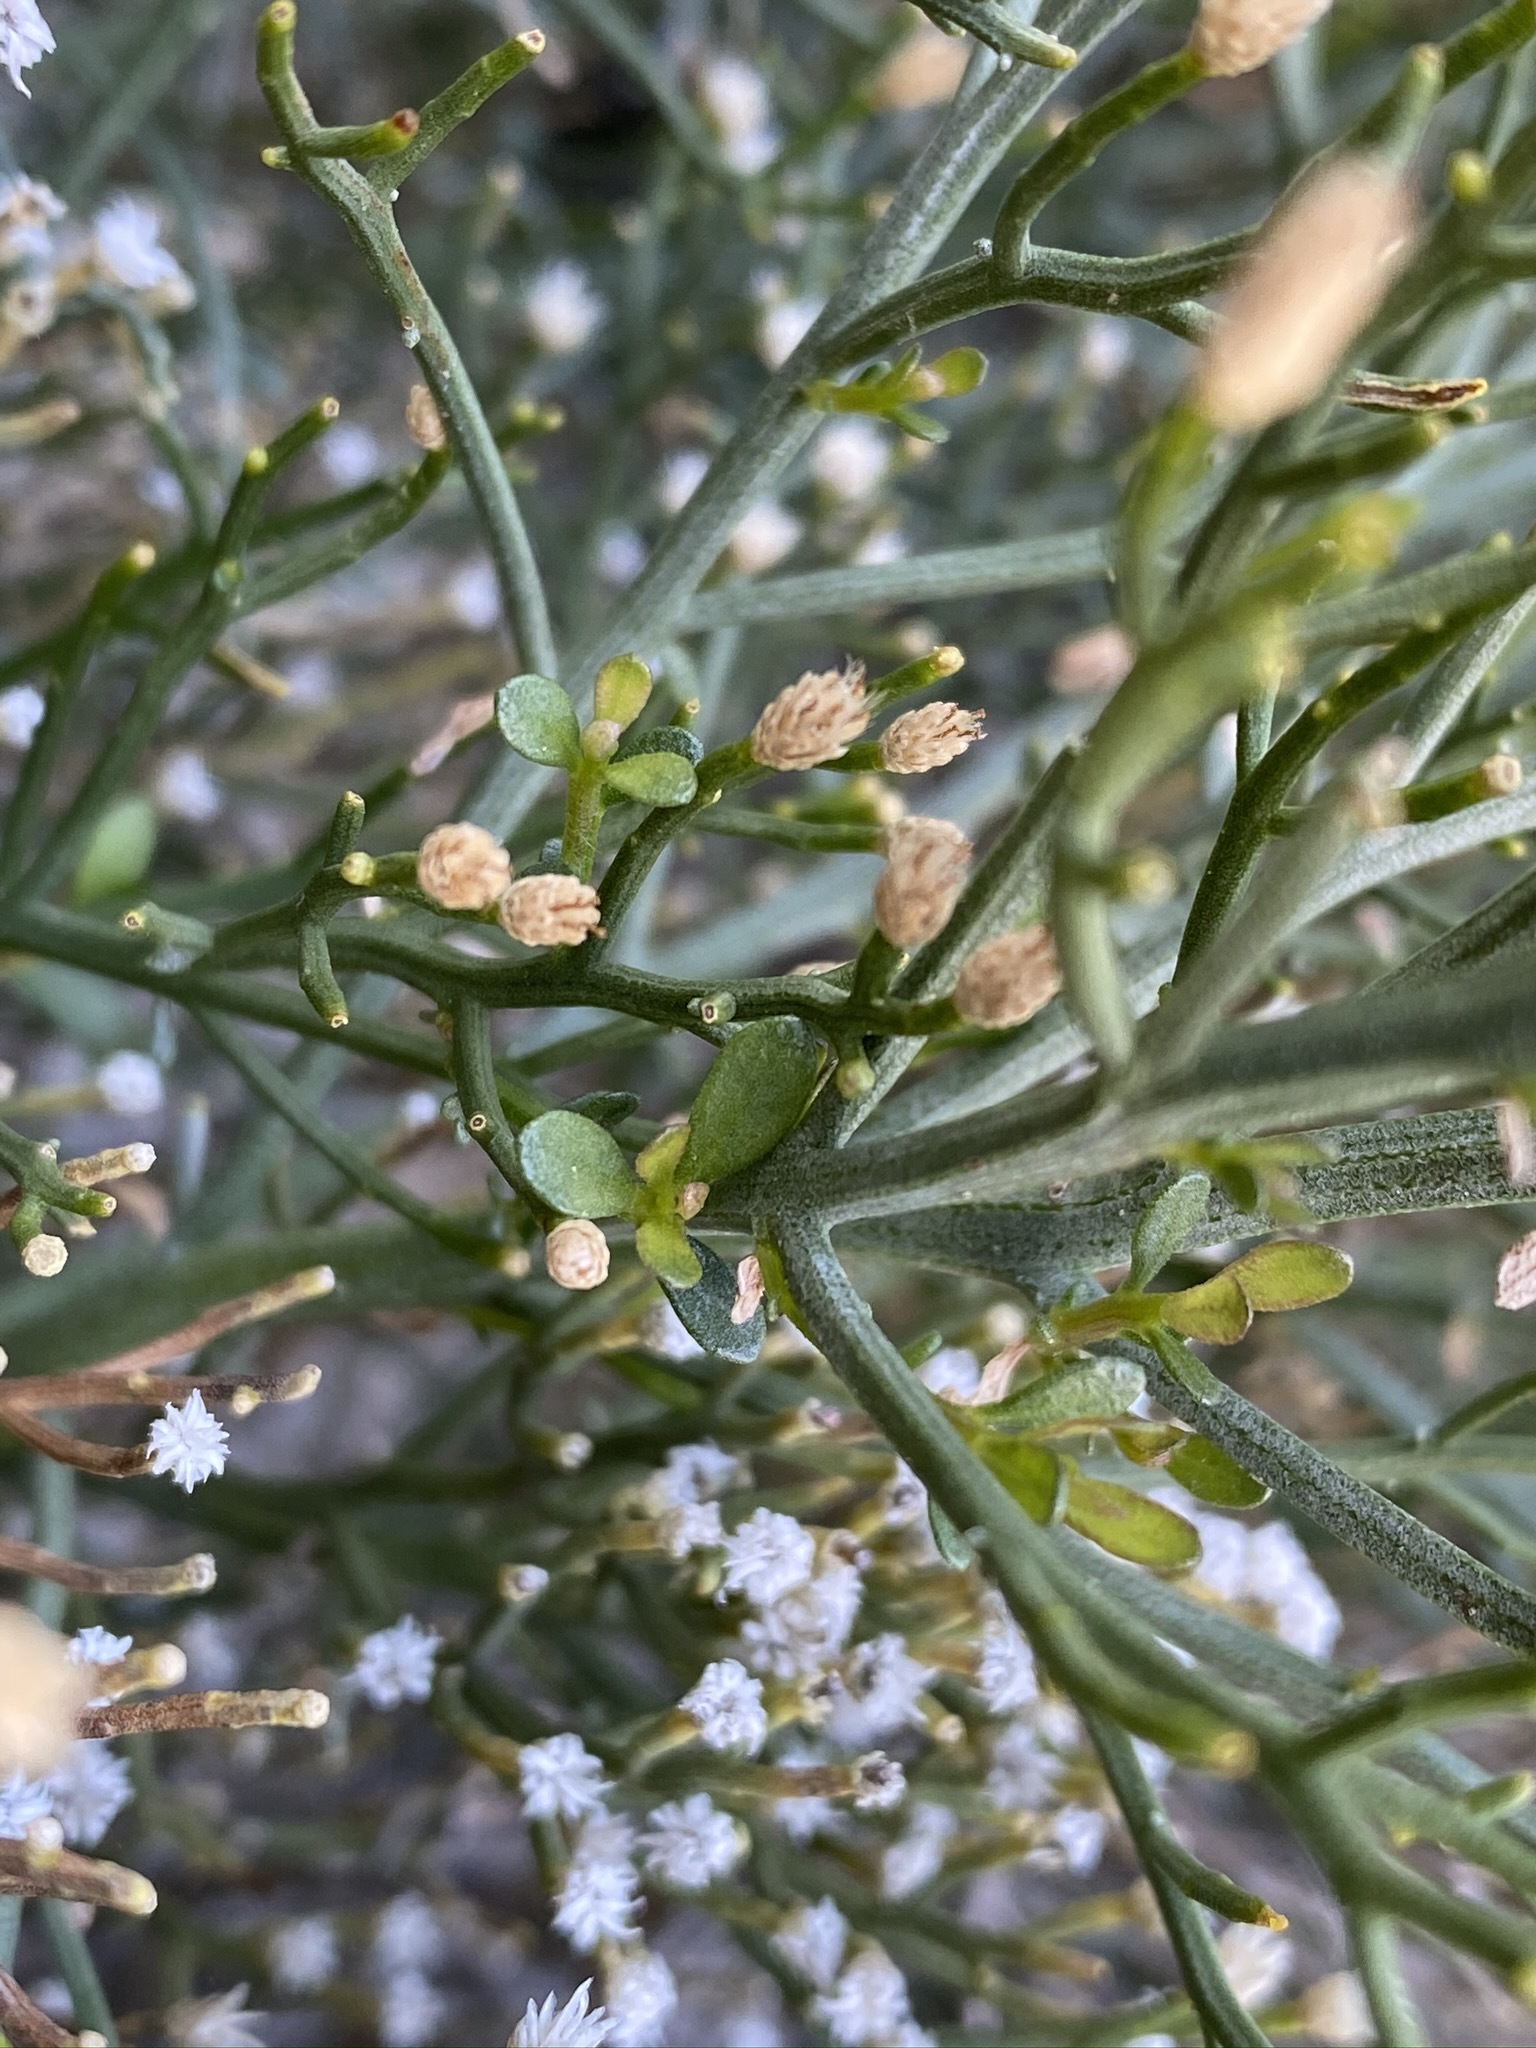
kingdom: Plantae
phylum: Tracheophyta
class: Magnoliopsida
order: Asterales
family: Asteraceae
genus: Baccharis
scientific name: Baccharis sergiloides
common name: Desert baccharis
